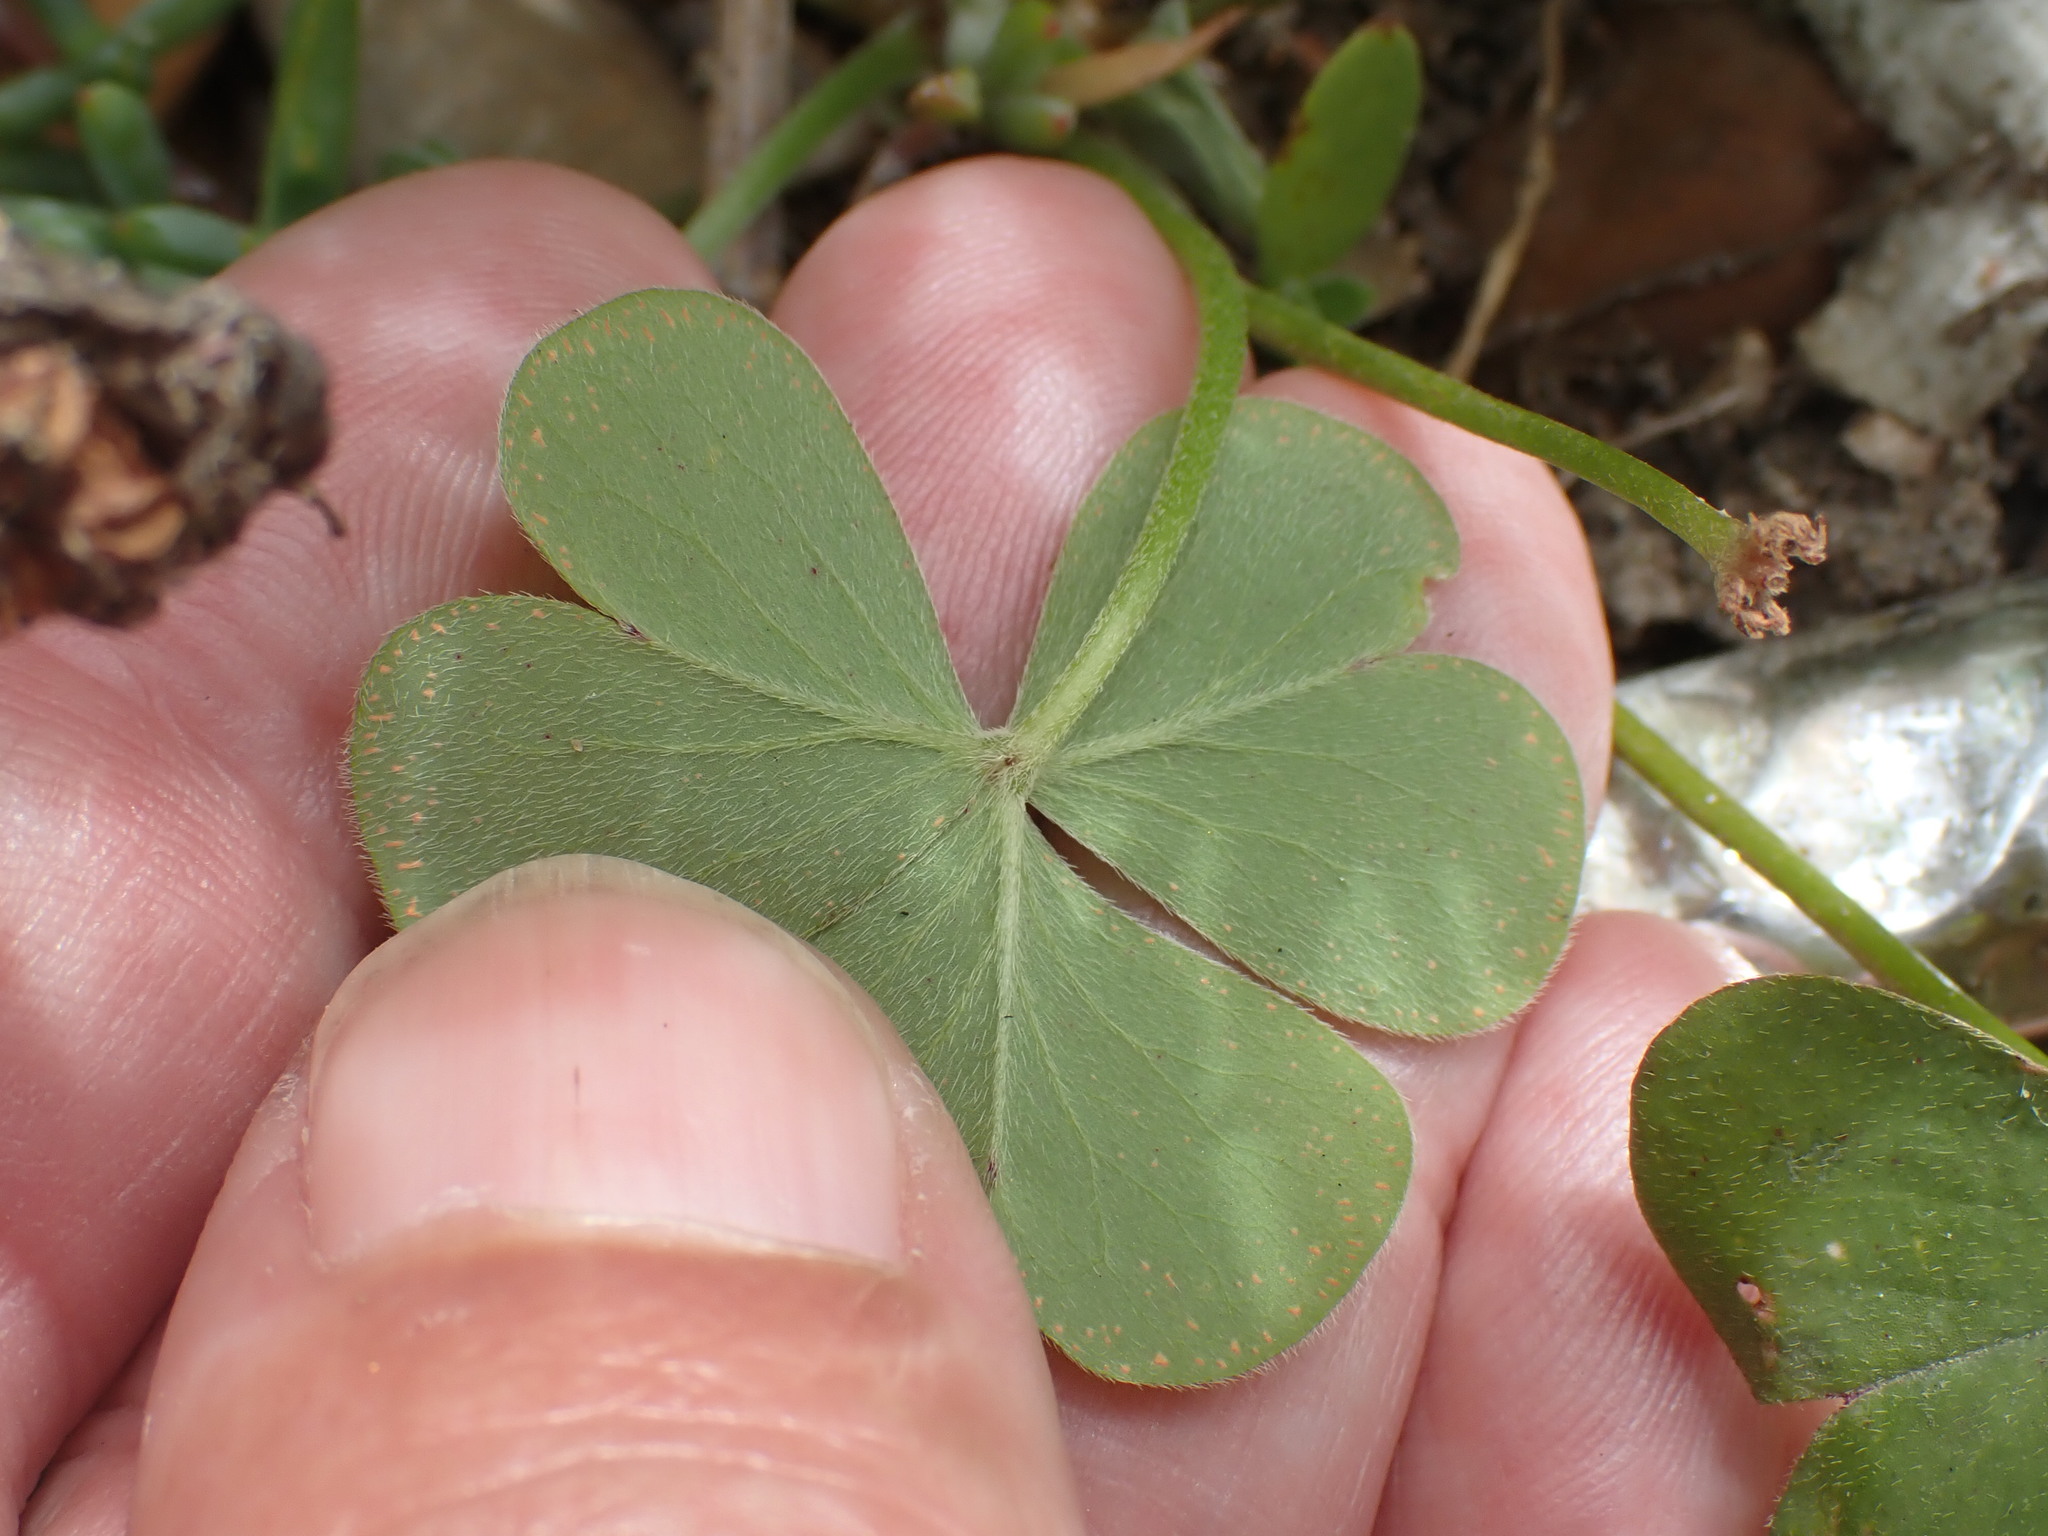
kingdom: Plantae
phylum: Tracheophyta
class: Magnoliopsida
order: Oxalidales
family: Oxalidaceae
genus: Oxalis
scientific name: Oxalis articulata
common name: Pink-sorrel
